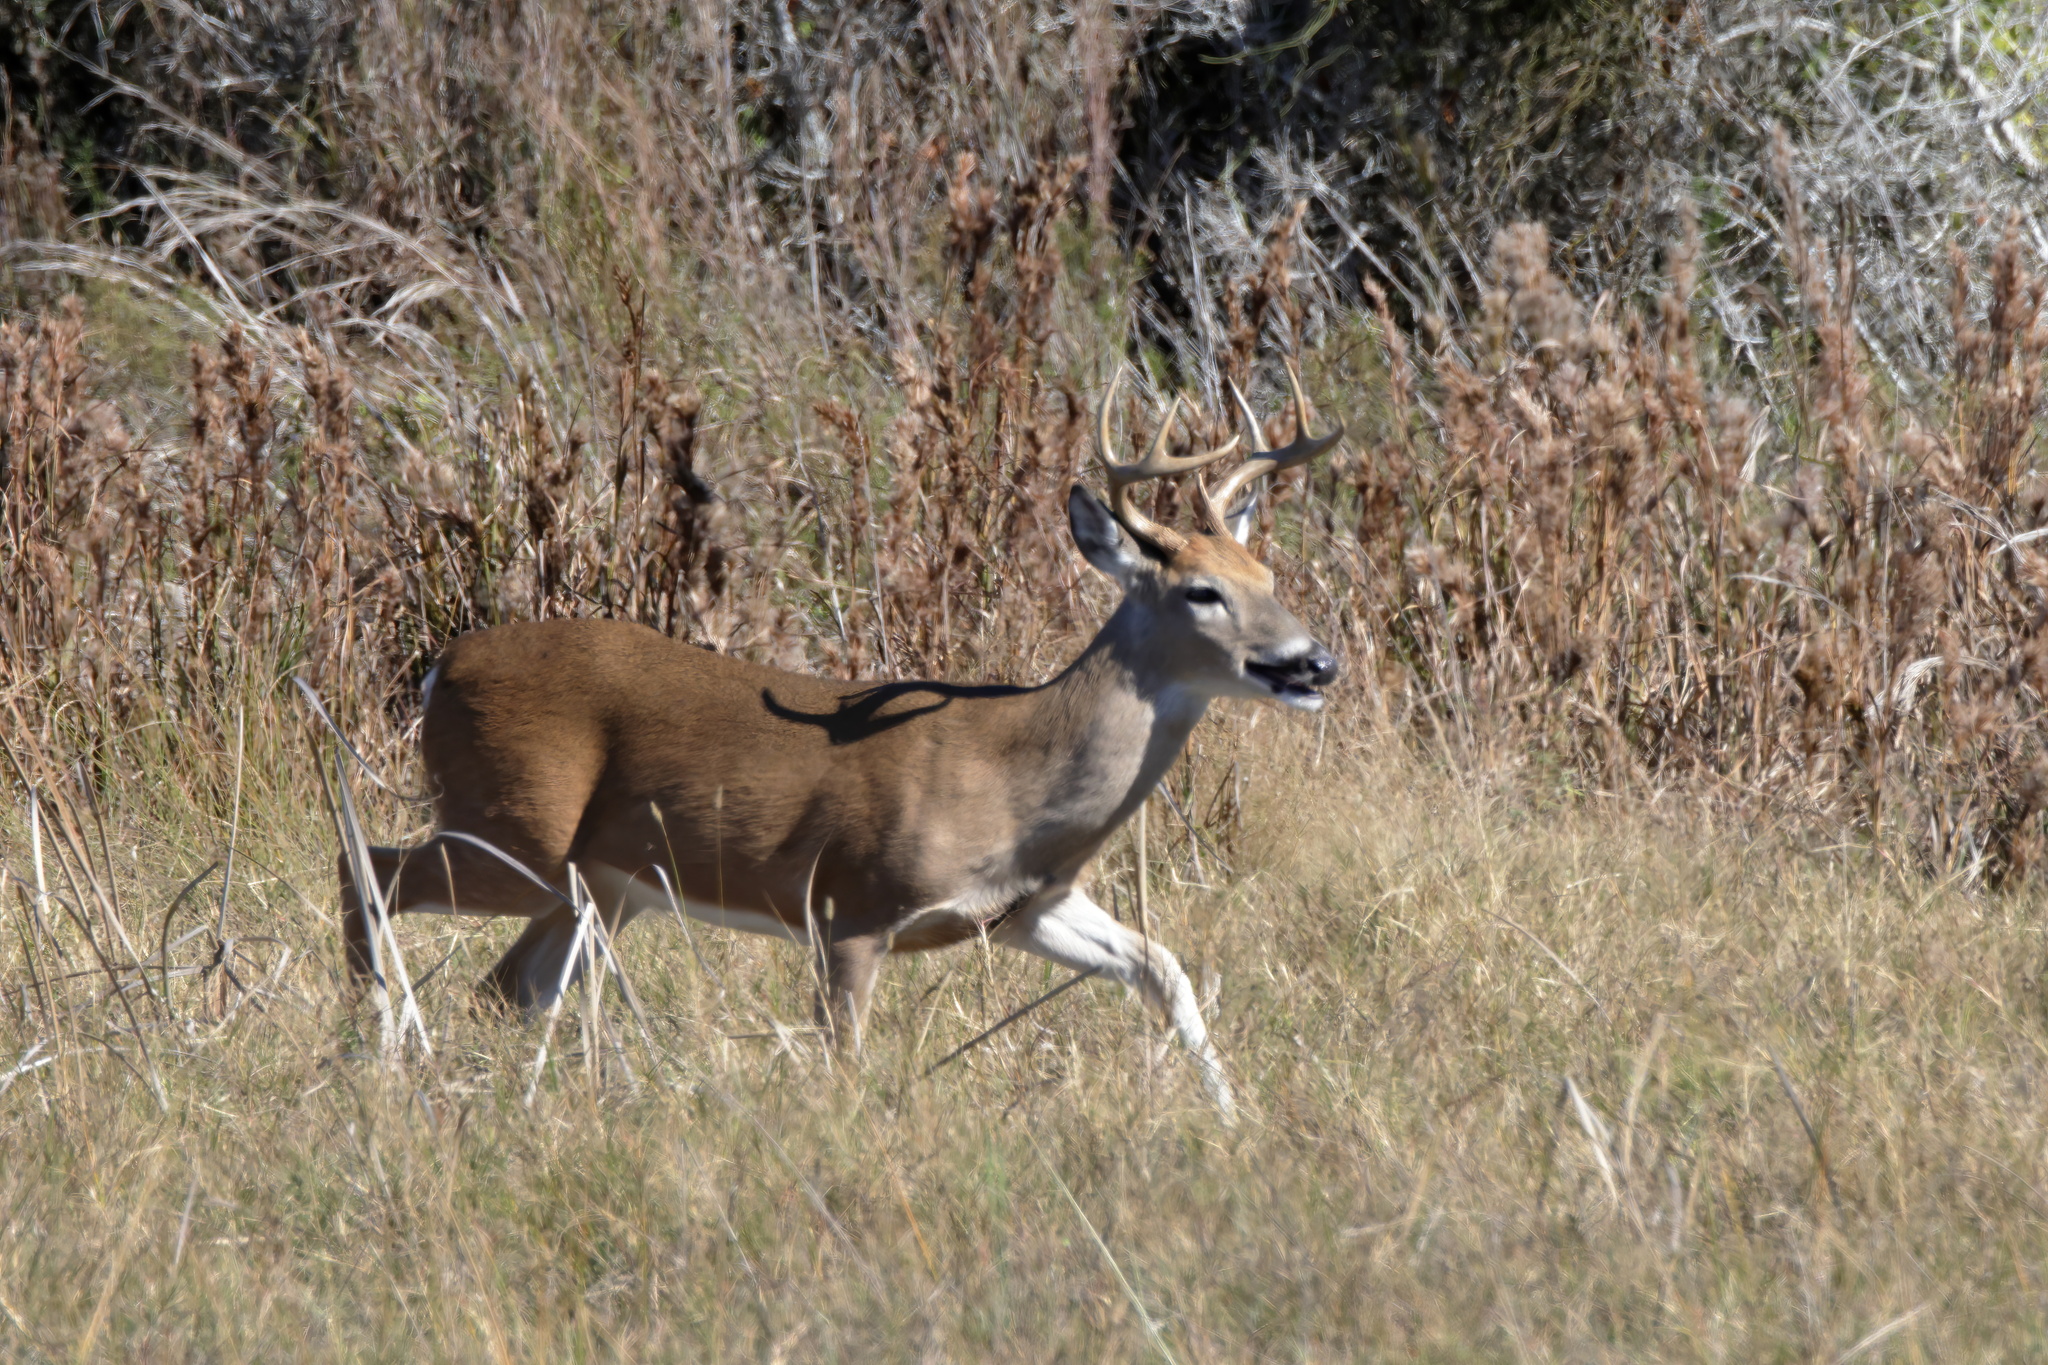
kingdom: Animalia
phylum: Chordata
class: Mammalia
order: Artiodactyla
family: Cervidae
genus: Odocoileus
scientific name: Odocoileus virginianus
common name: White-tailed deer
